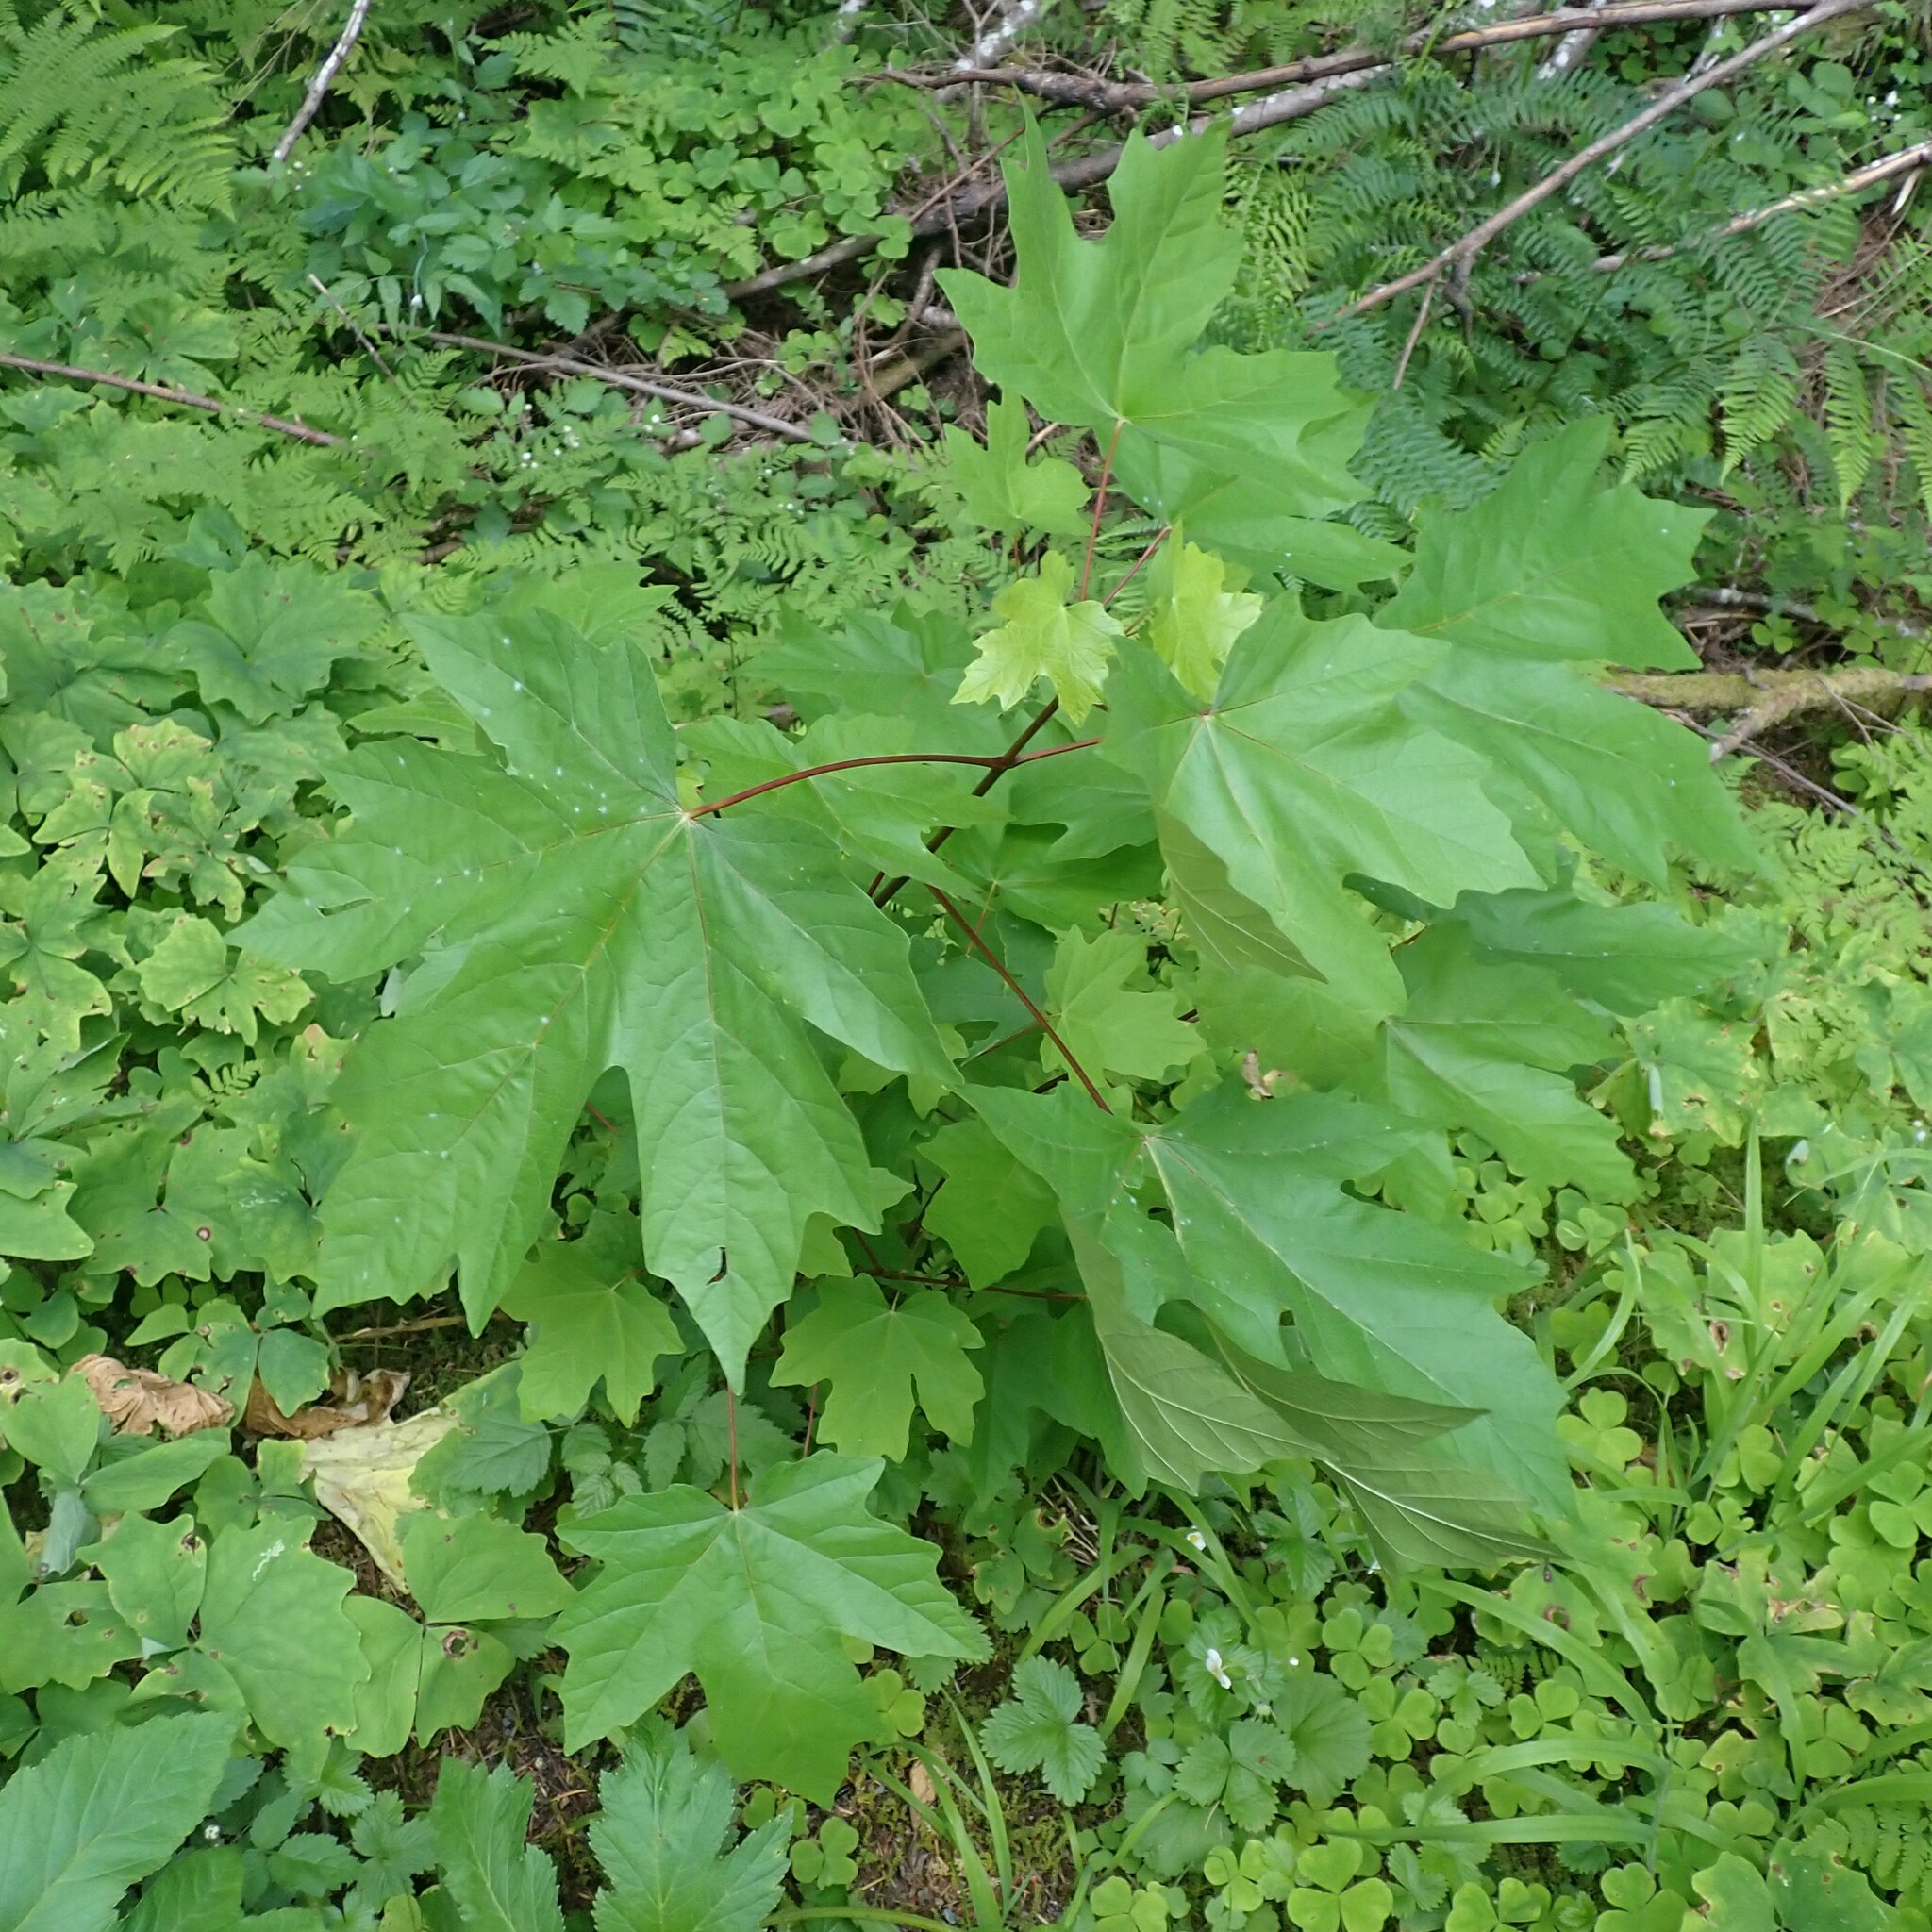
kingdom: Plantae
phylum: Tracheophyta
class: Magnoliopsida
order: Sapindales
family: Sapindaceae
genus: Acer
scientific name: Acer macrophyllum
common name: Oregon maple
